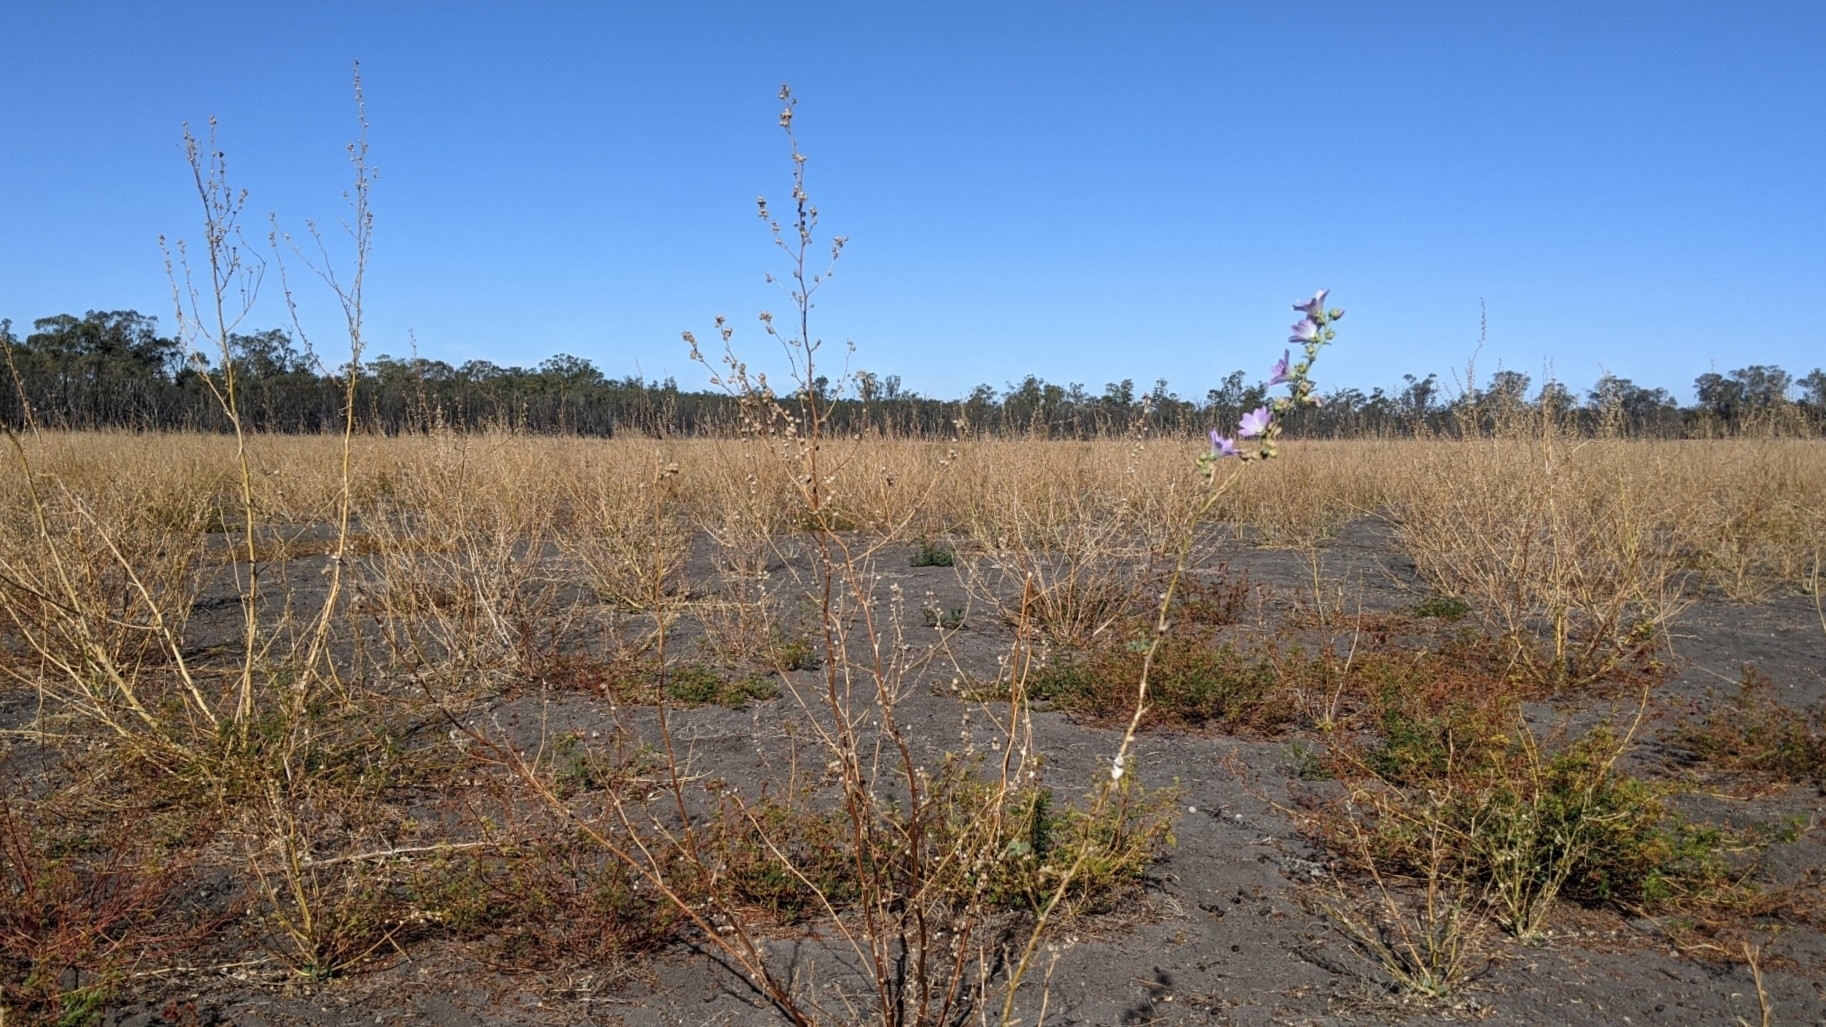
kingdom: Plantae
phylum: Tracheophyta
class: Magnoliopsida
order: Malvales
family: Malvaceae
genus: Malva
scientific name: Malva weinmanniana
